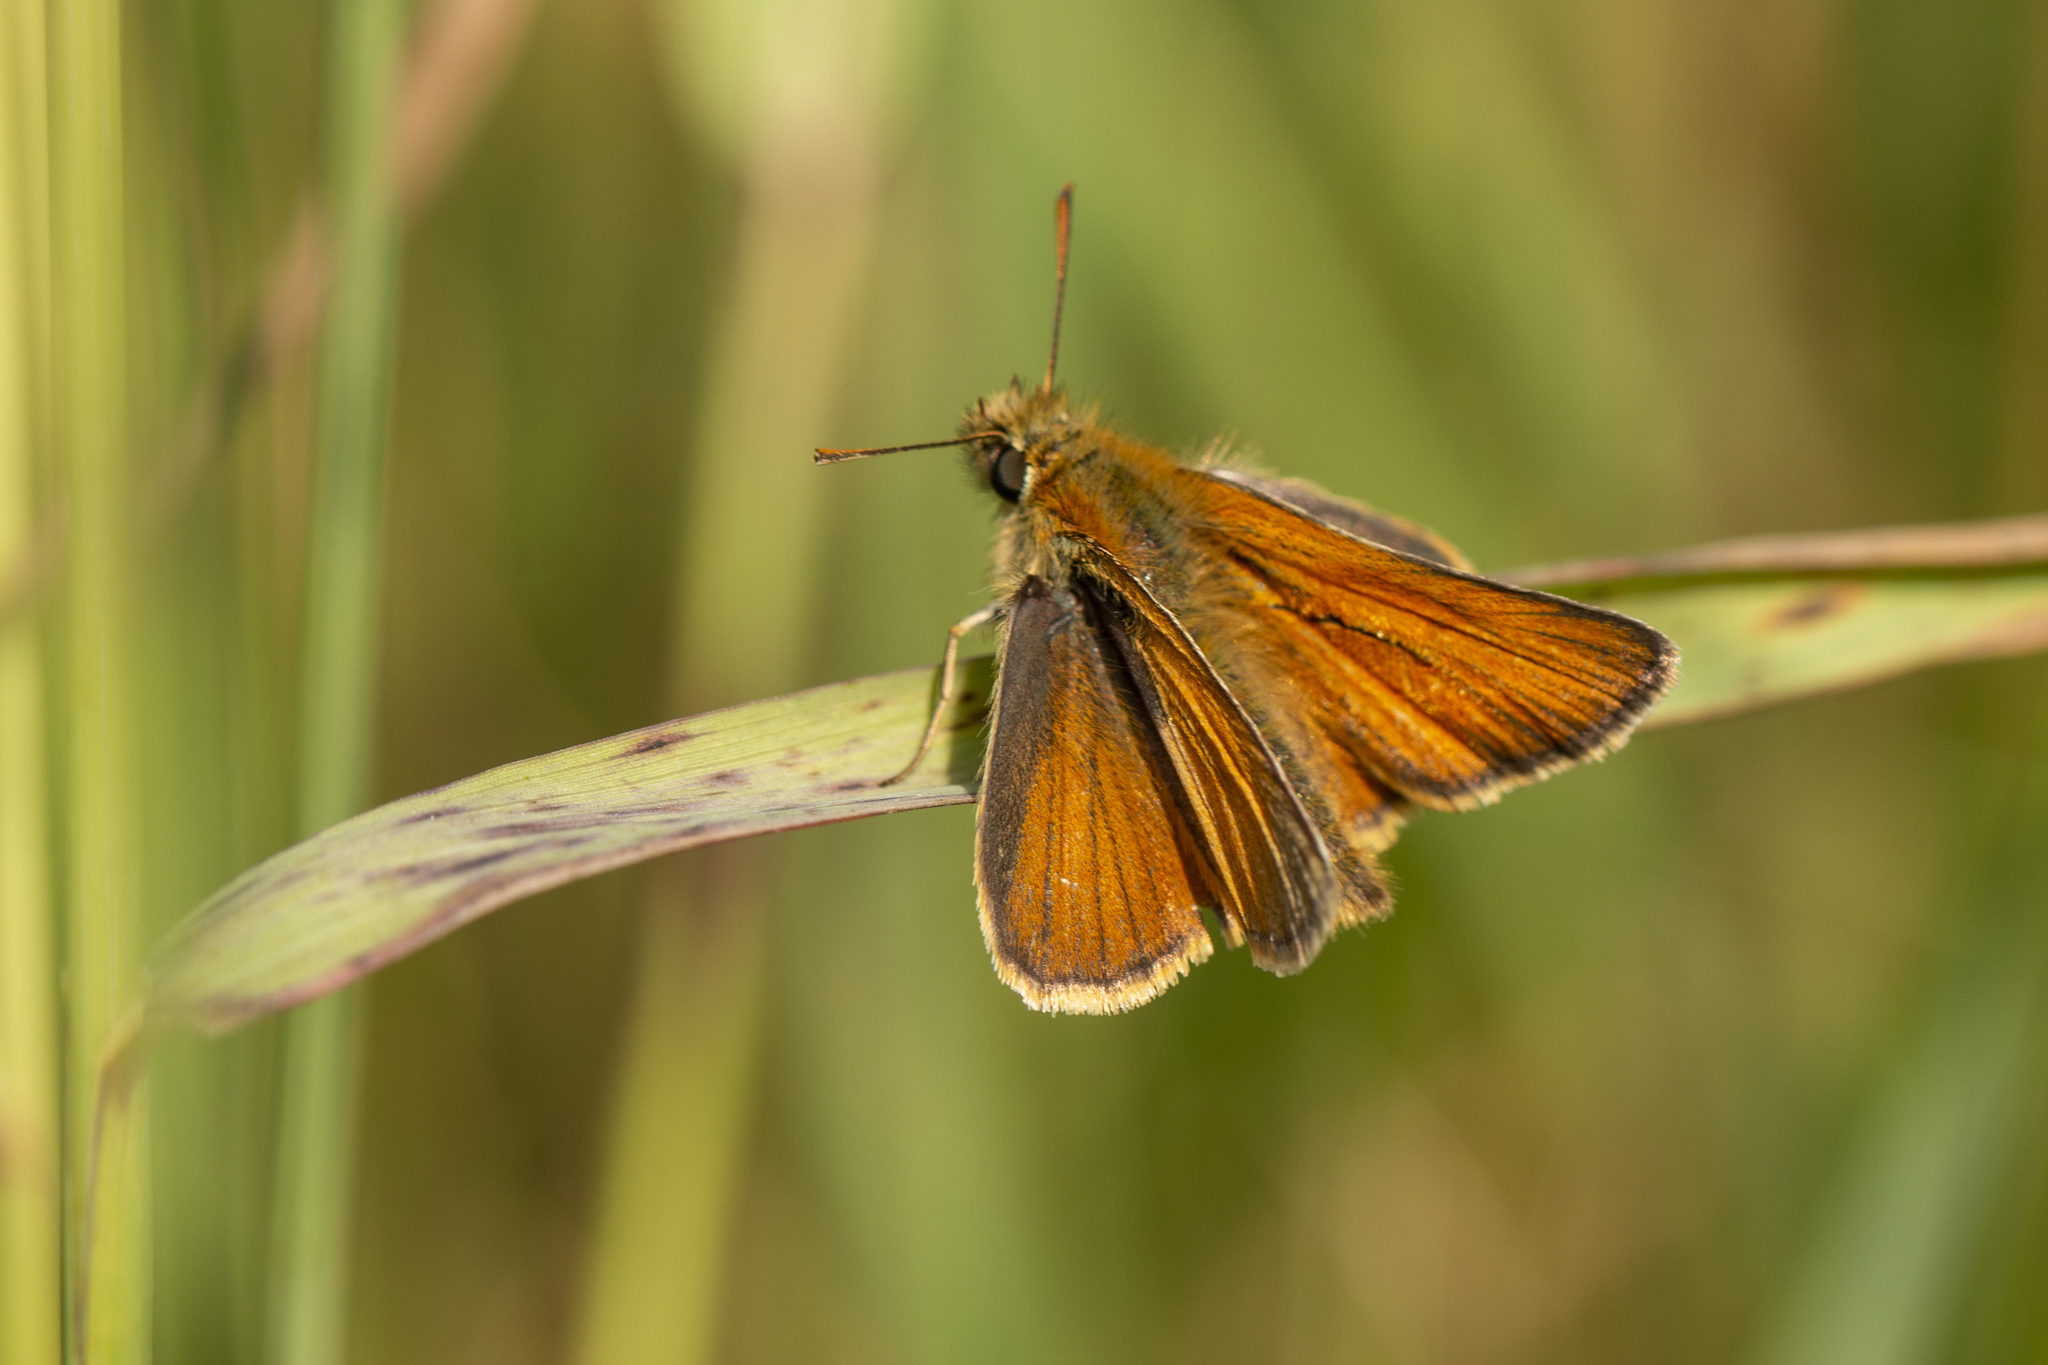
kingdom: Animalia
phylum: Arthropoda
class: Insecta
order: Lepidoptera
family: Hesperiidae
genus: Thymelicus
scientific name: Thymelicus sylvestris
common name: Small skipper
